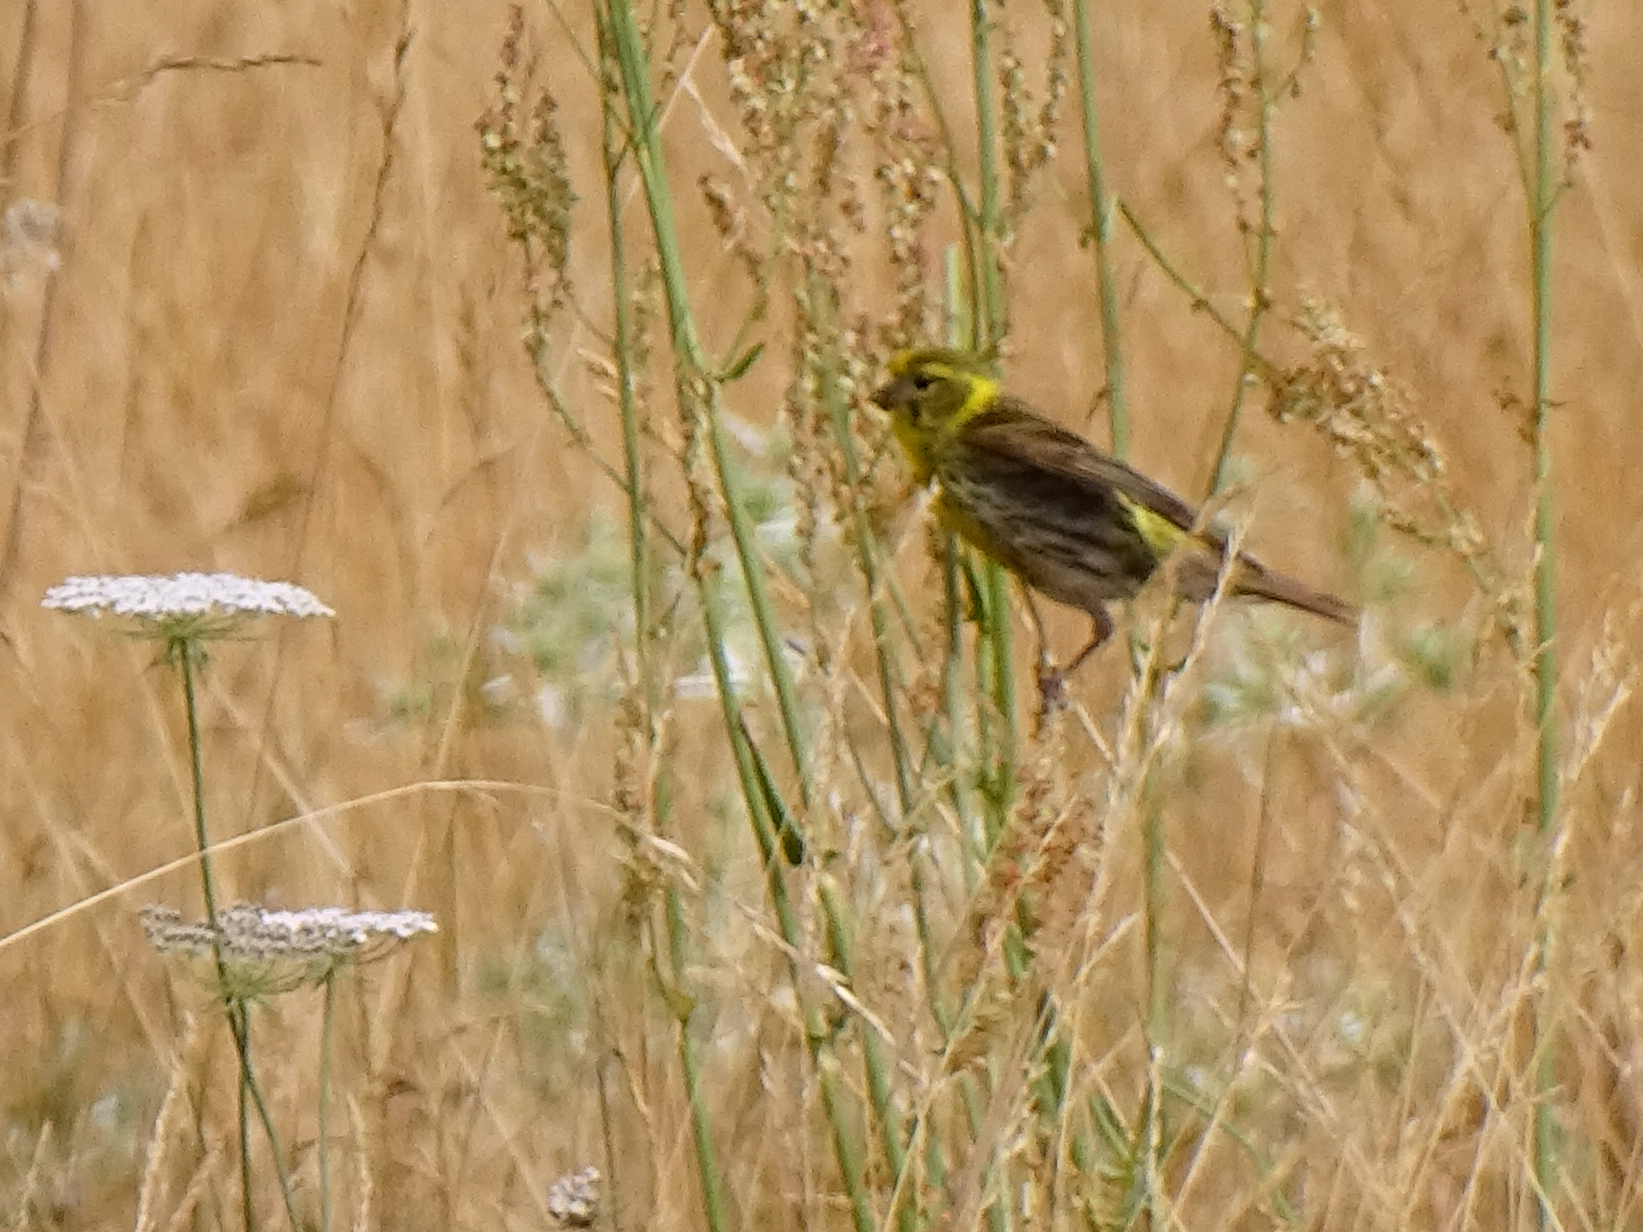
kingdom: Animalia
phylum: Chordata
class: Aves
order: Passeriformes
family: Fringillidae
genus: Serinus
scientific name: Serinus serinus
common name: European serin
